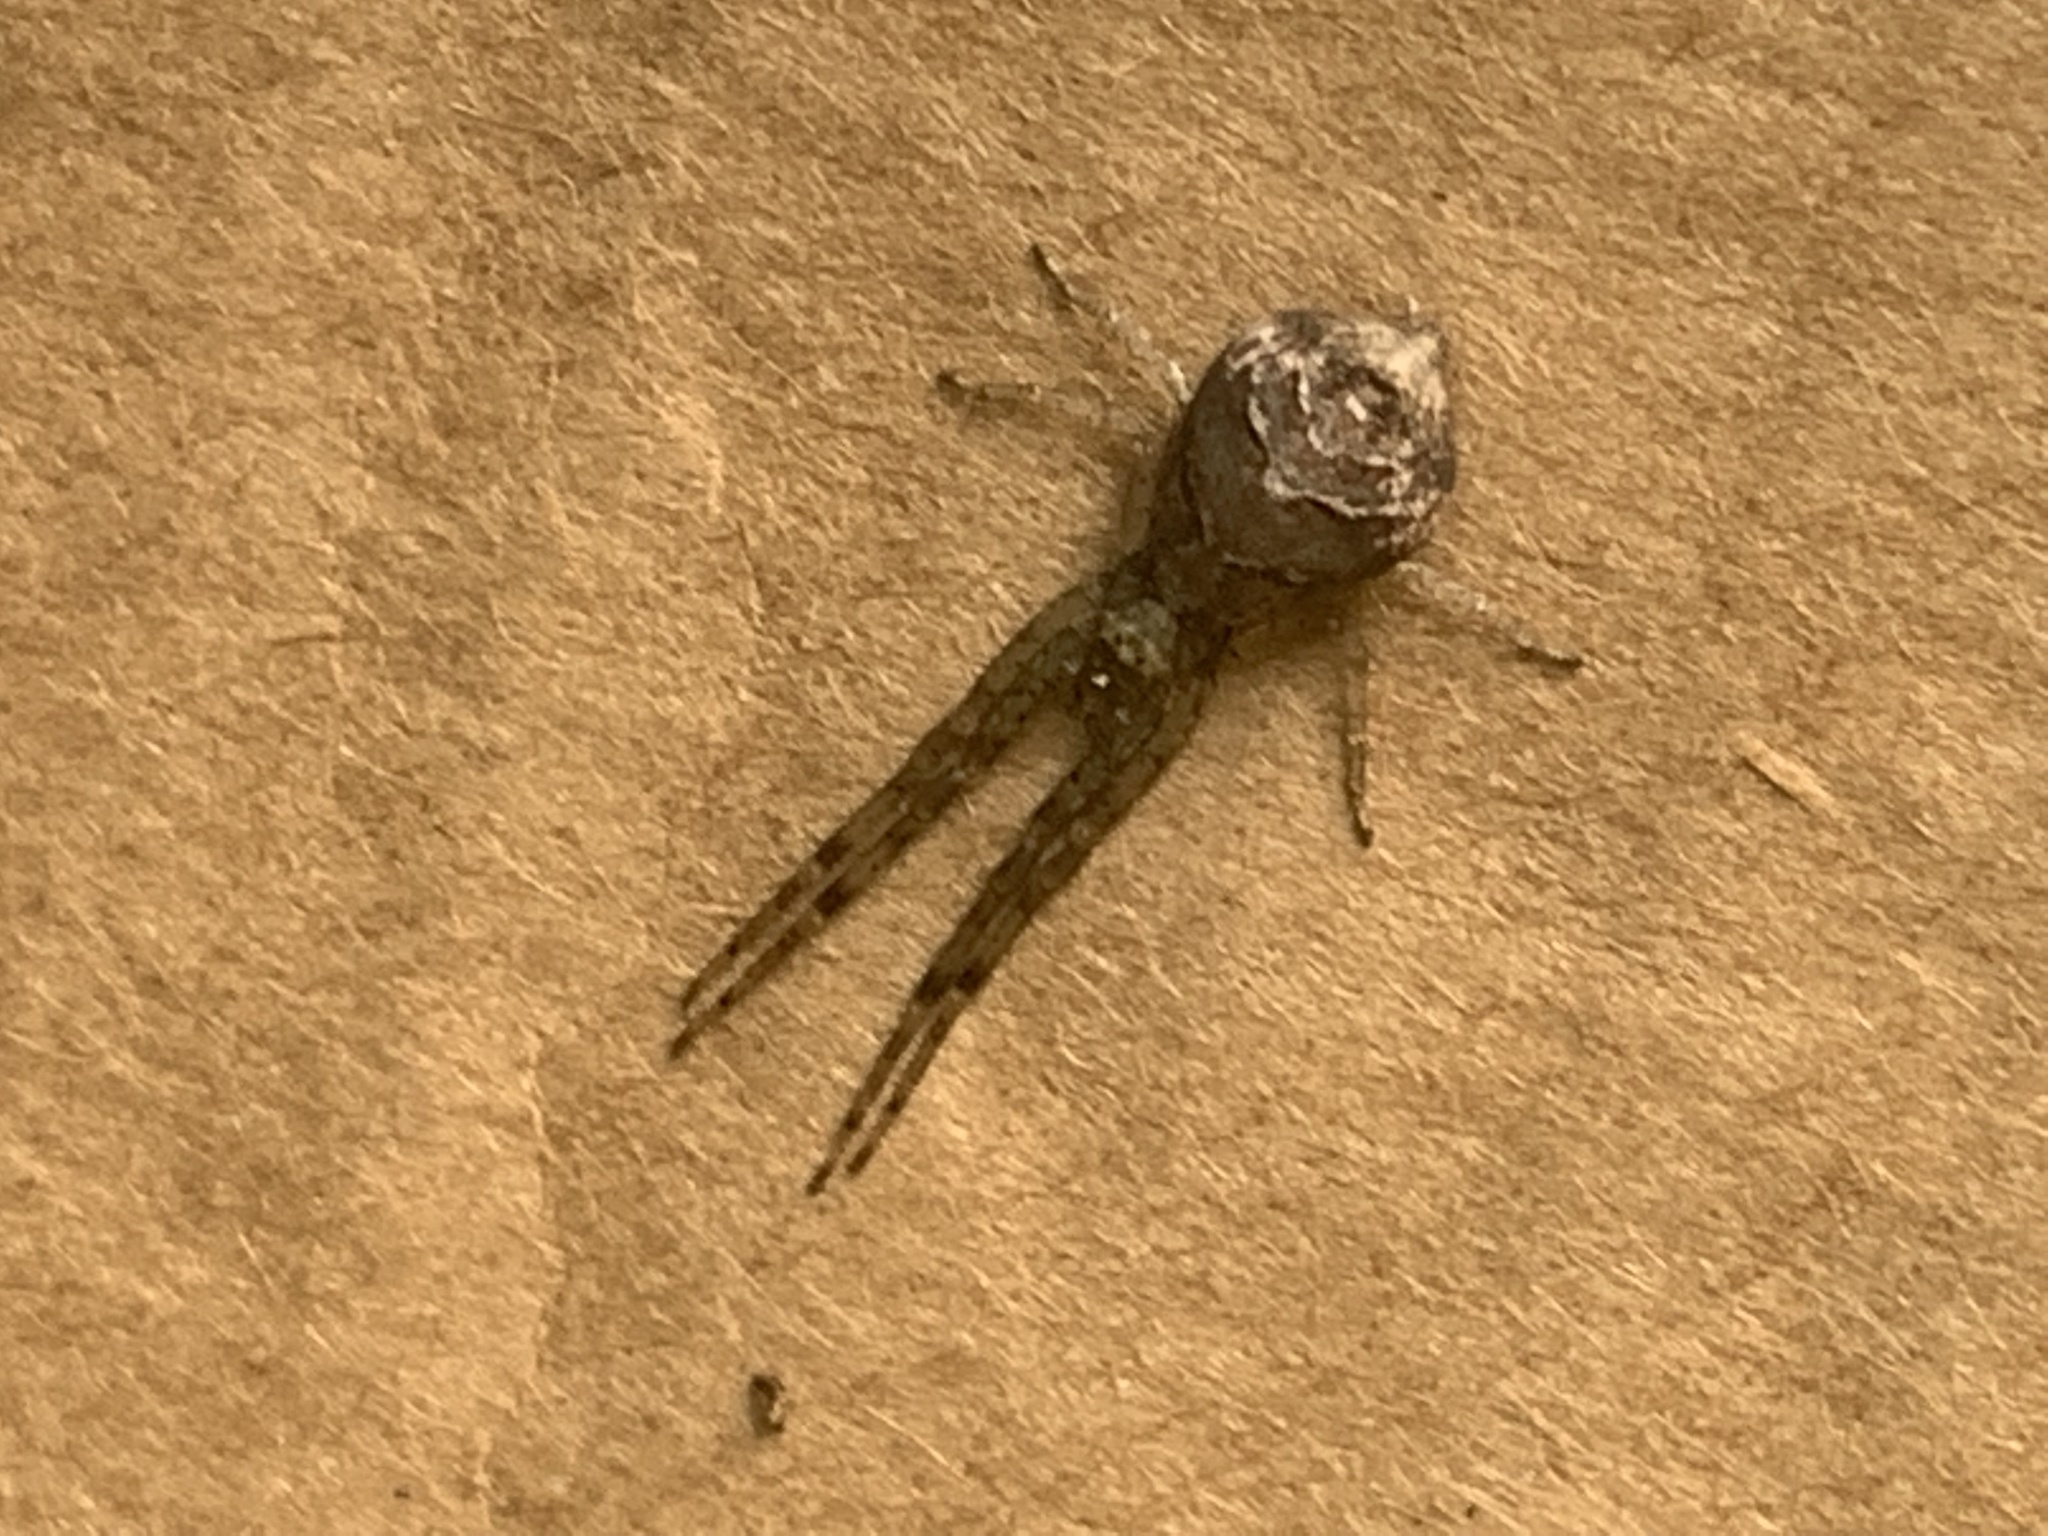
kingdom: Animalia
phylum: Arthropoda
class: Arachnida
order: Araneae
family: Thomisidae
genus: Tmarus
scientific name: Tmarus
